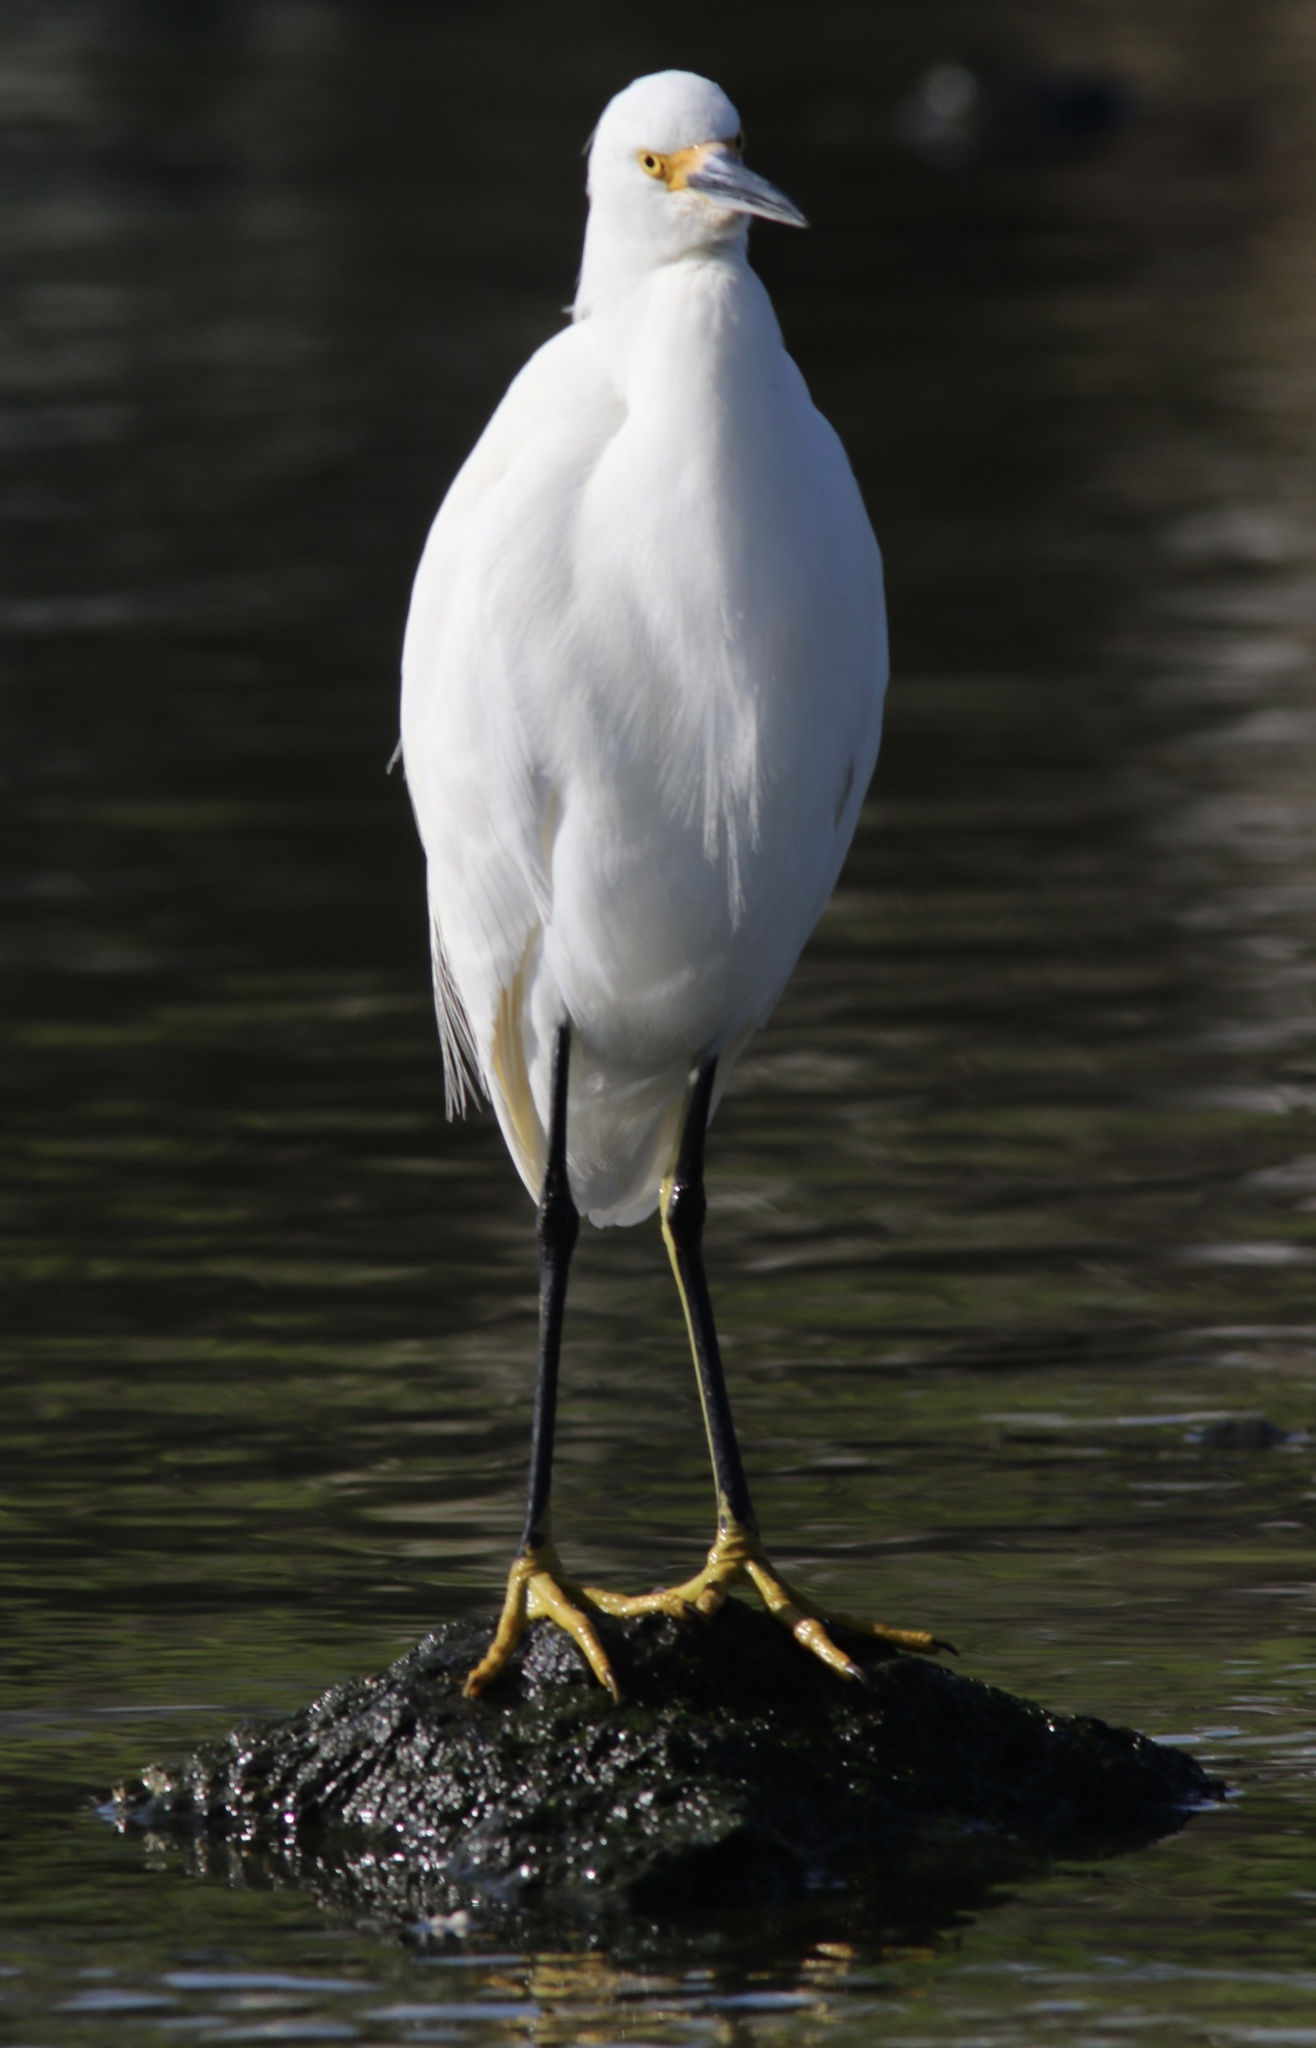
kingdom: Animalia
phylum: Chordata
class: Aves
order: Pelecaniformes
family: Ardeidae
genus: Egretta
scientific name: Egretta thula
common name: Snowy egret
